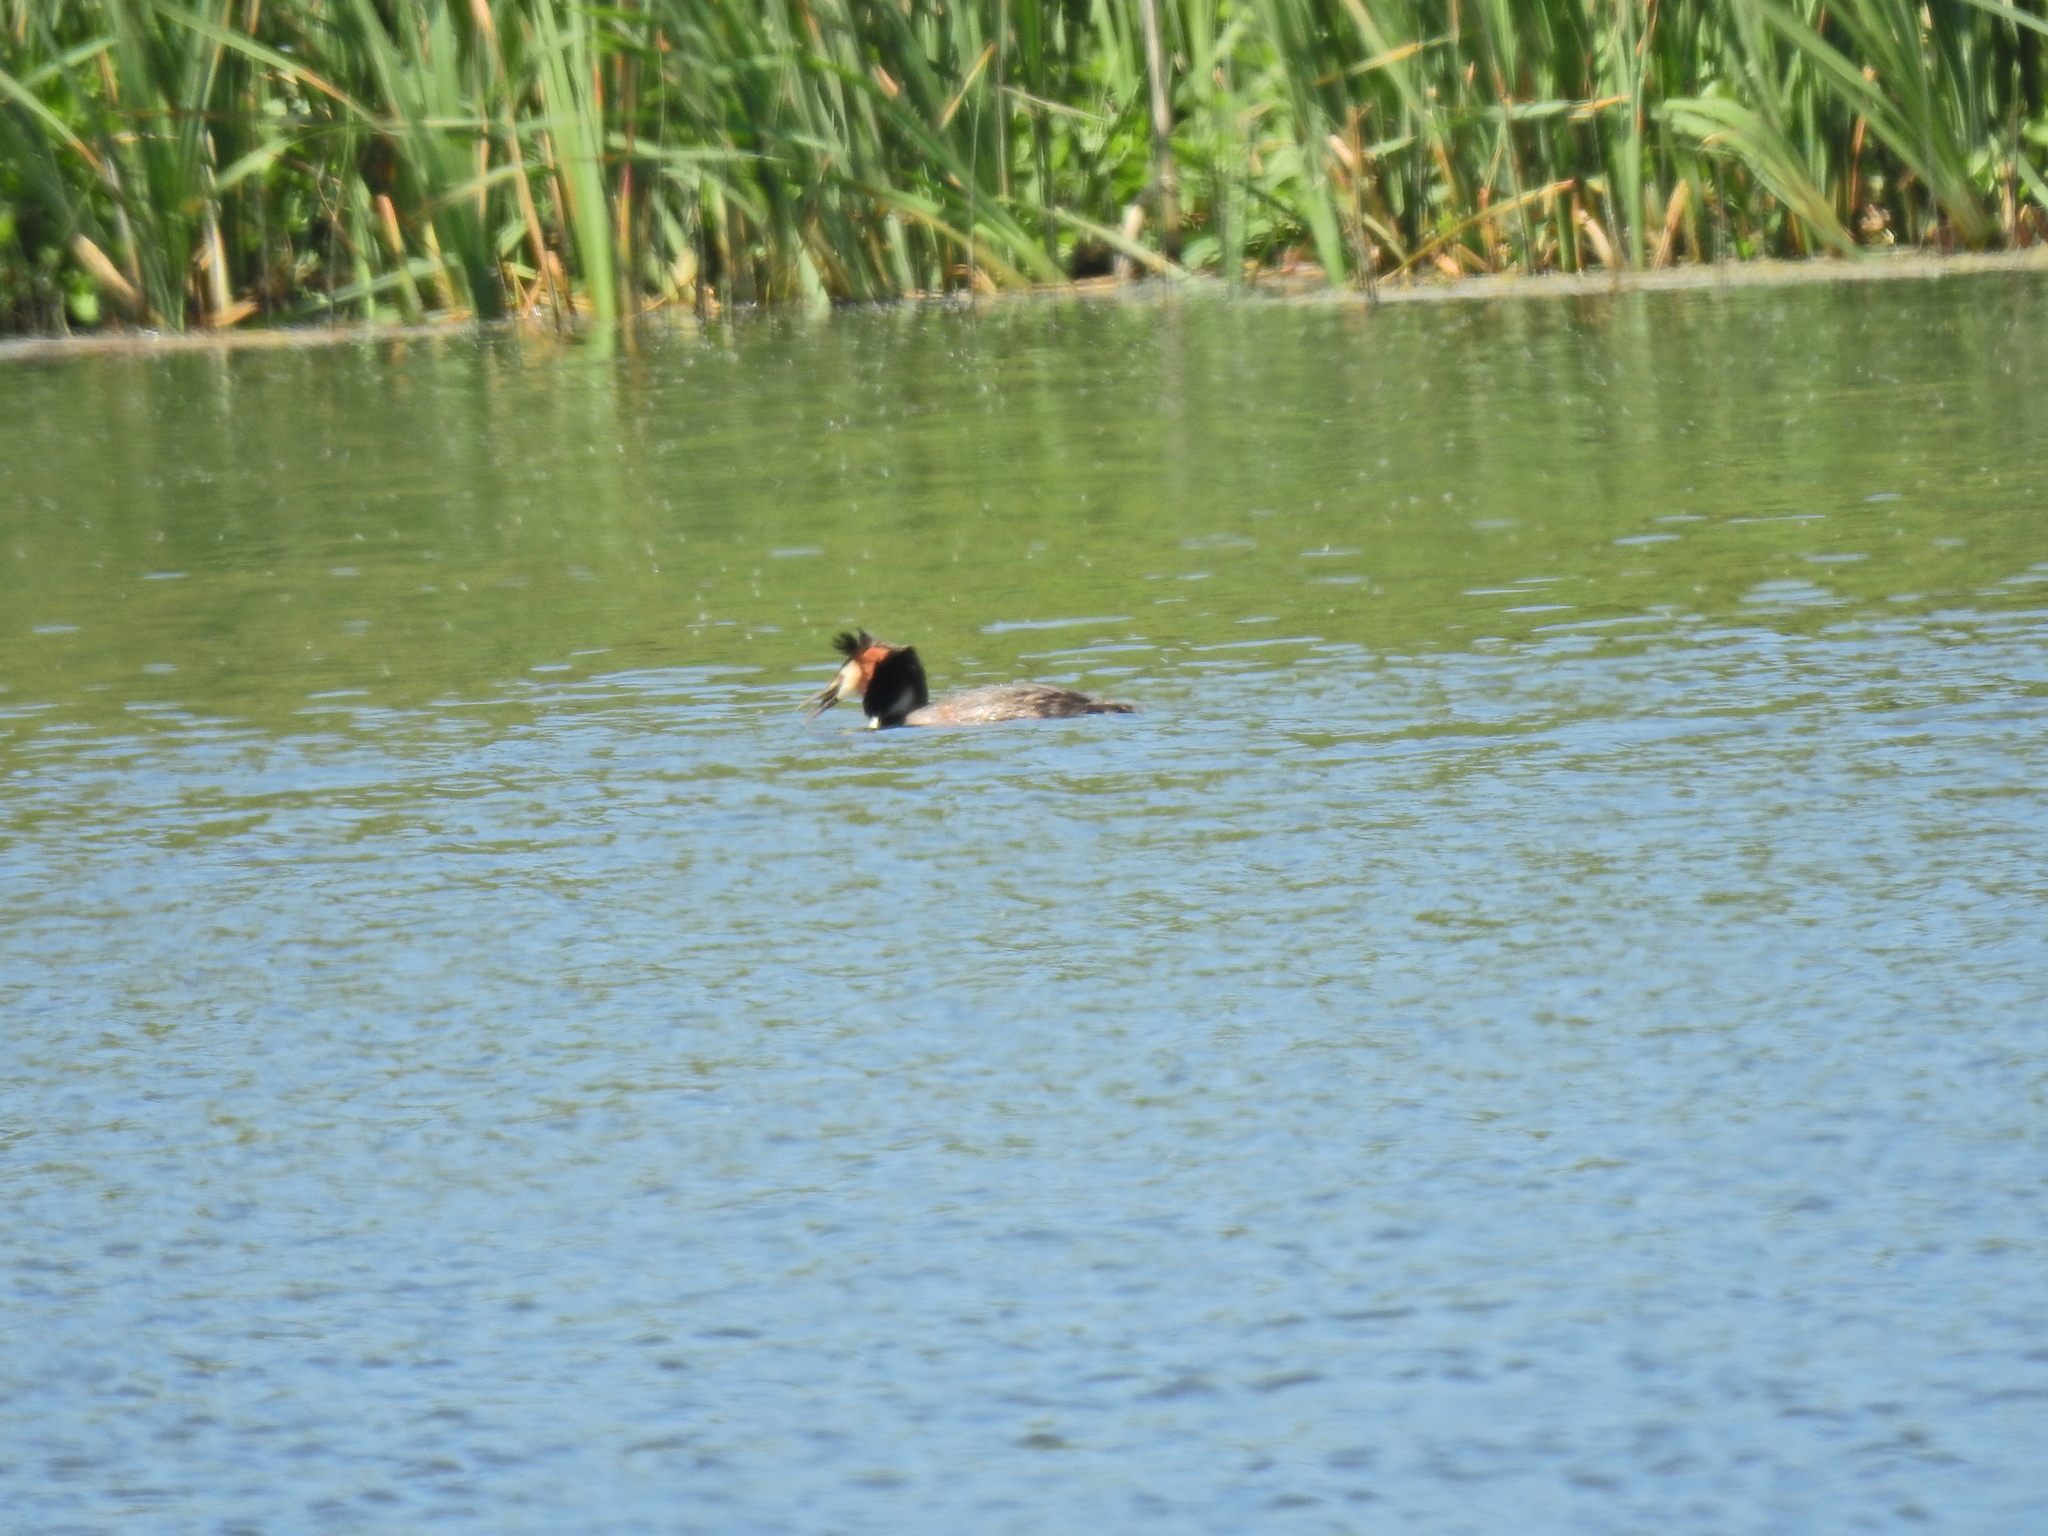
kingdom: Animalia
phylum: Chordata
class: Aves
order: Podicipediformes
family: Podicipedidae
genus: Podiceps
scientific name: Podiceps cristatus
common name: Great crested grebe
